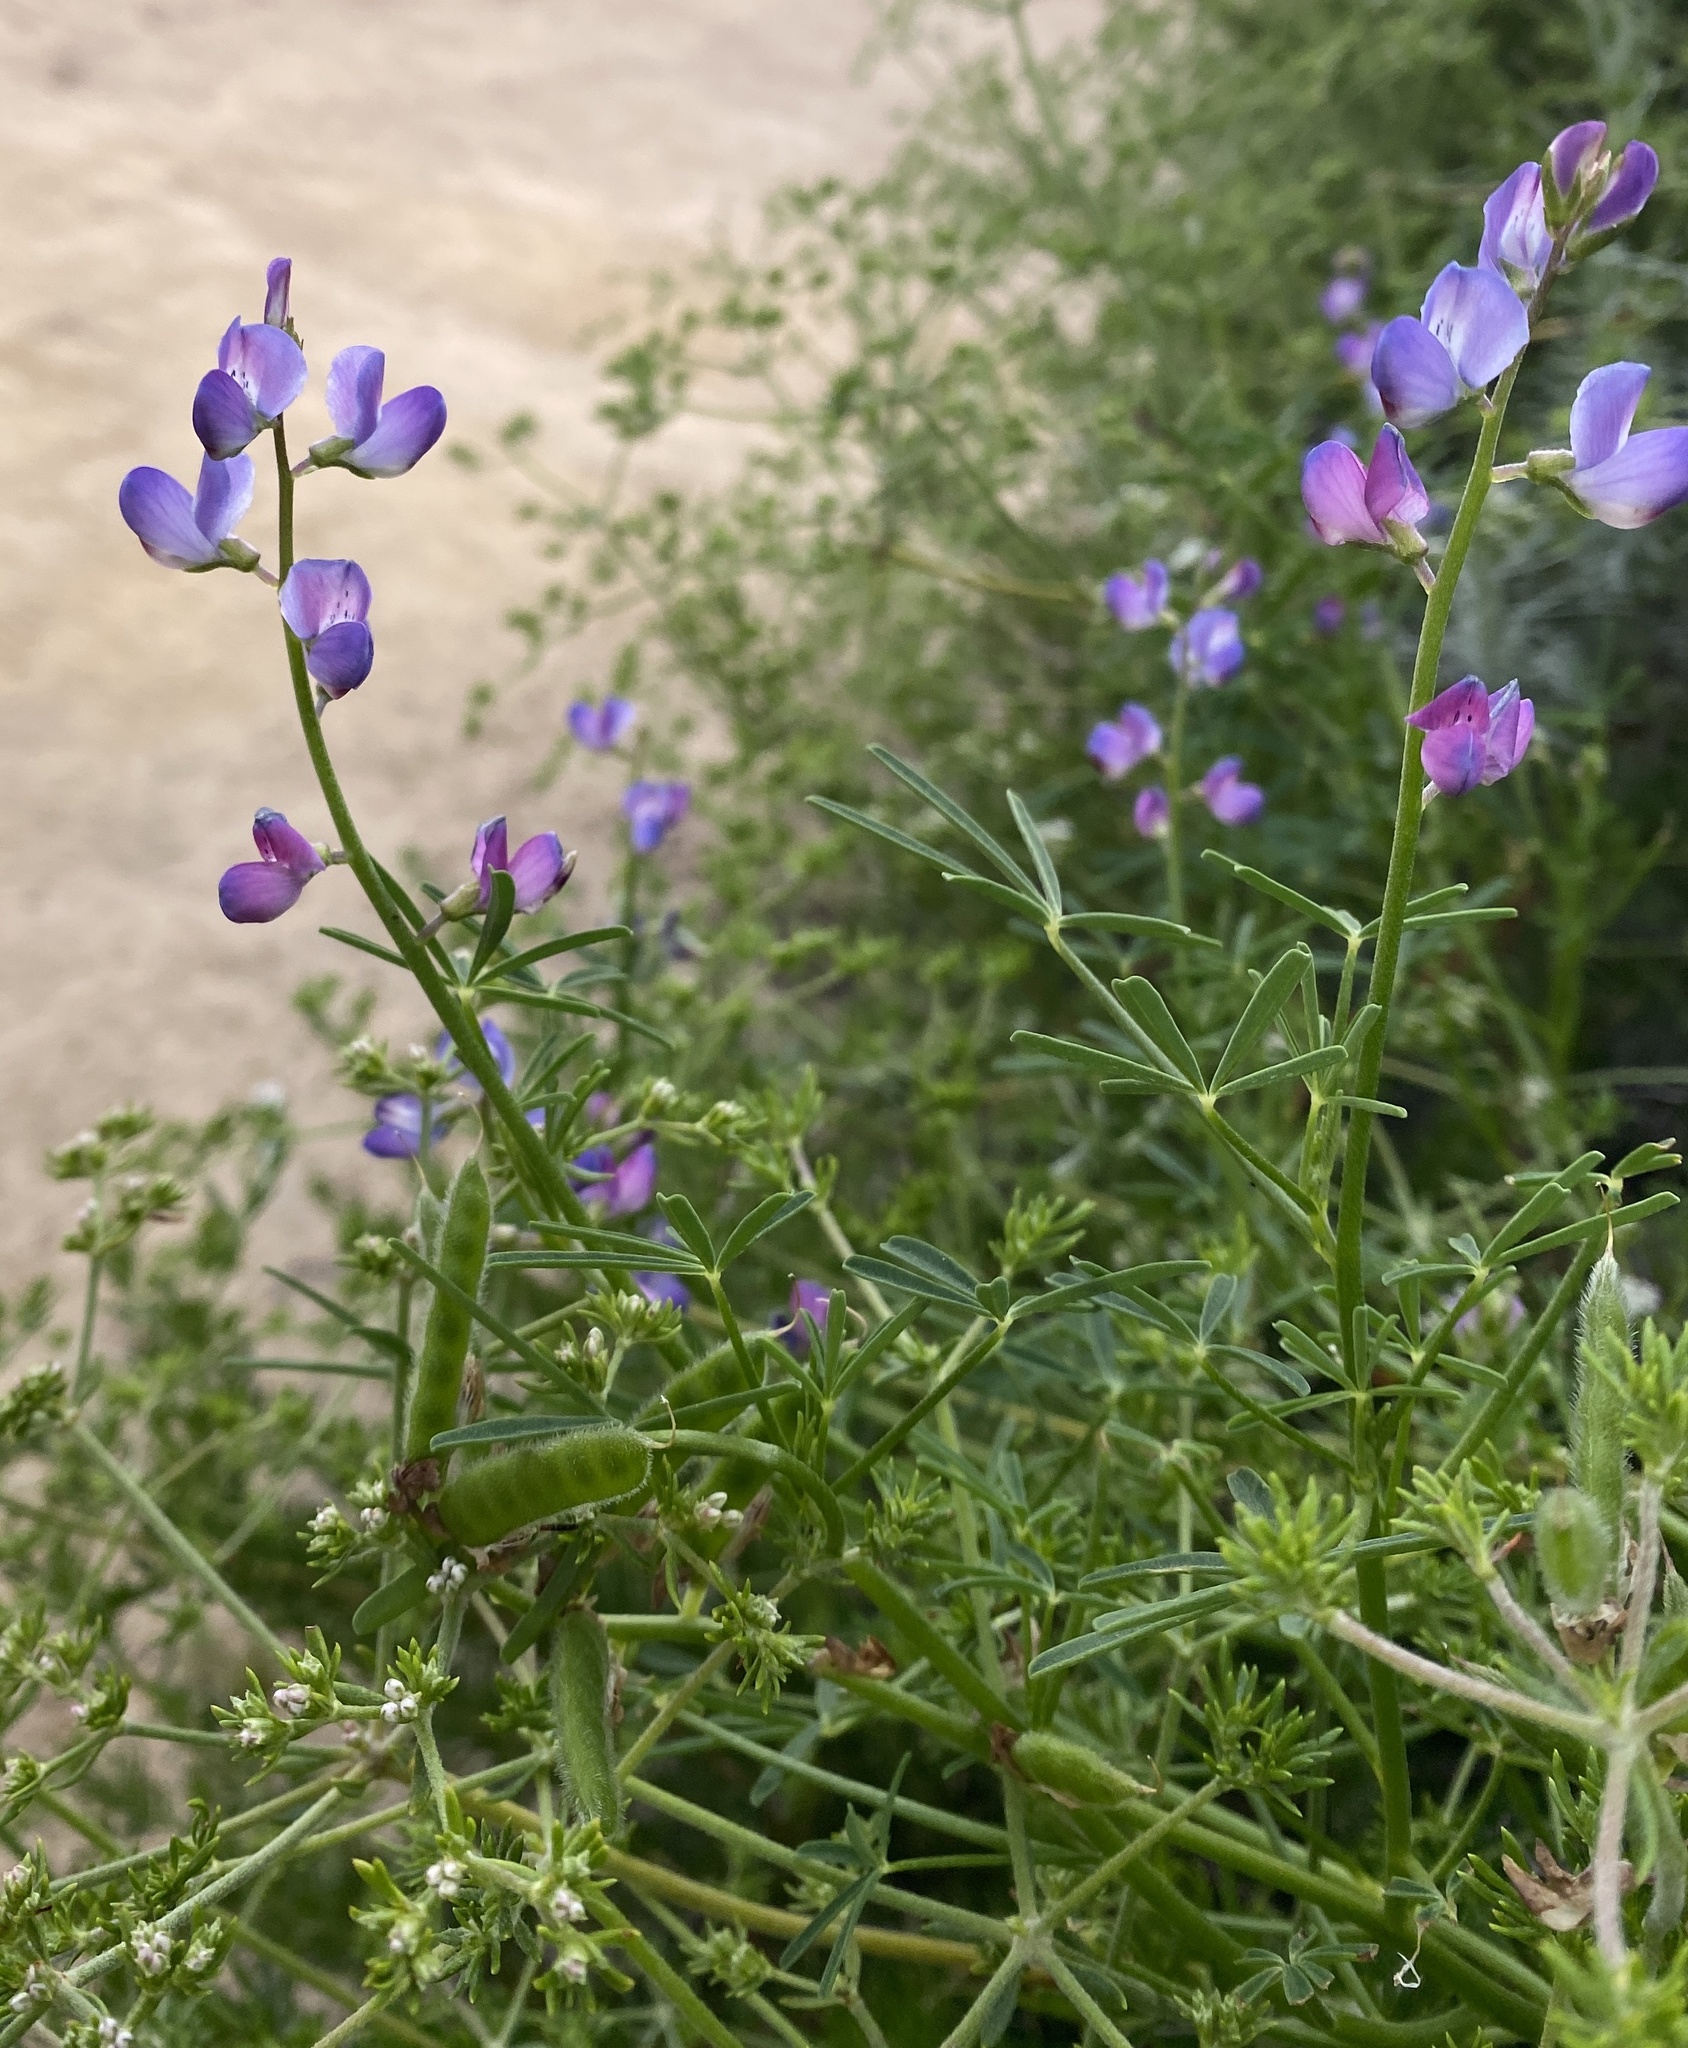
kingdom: Plantae
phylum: Tracheophyta
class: Magnoliopsida
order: Fabales
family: Fabaceae
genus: Lupinus
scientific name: Lupinus truncatus
